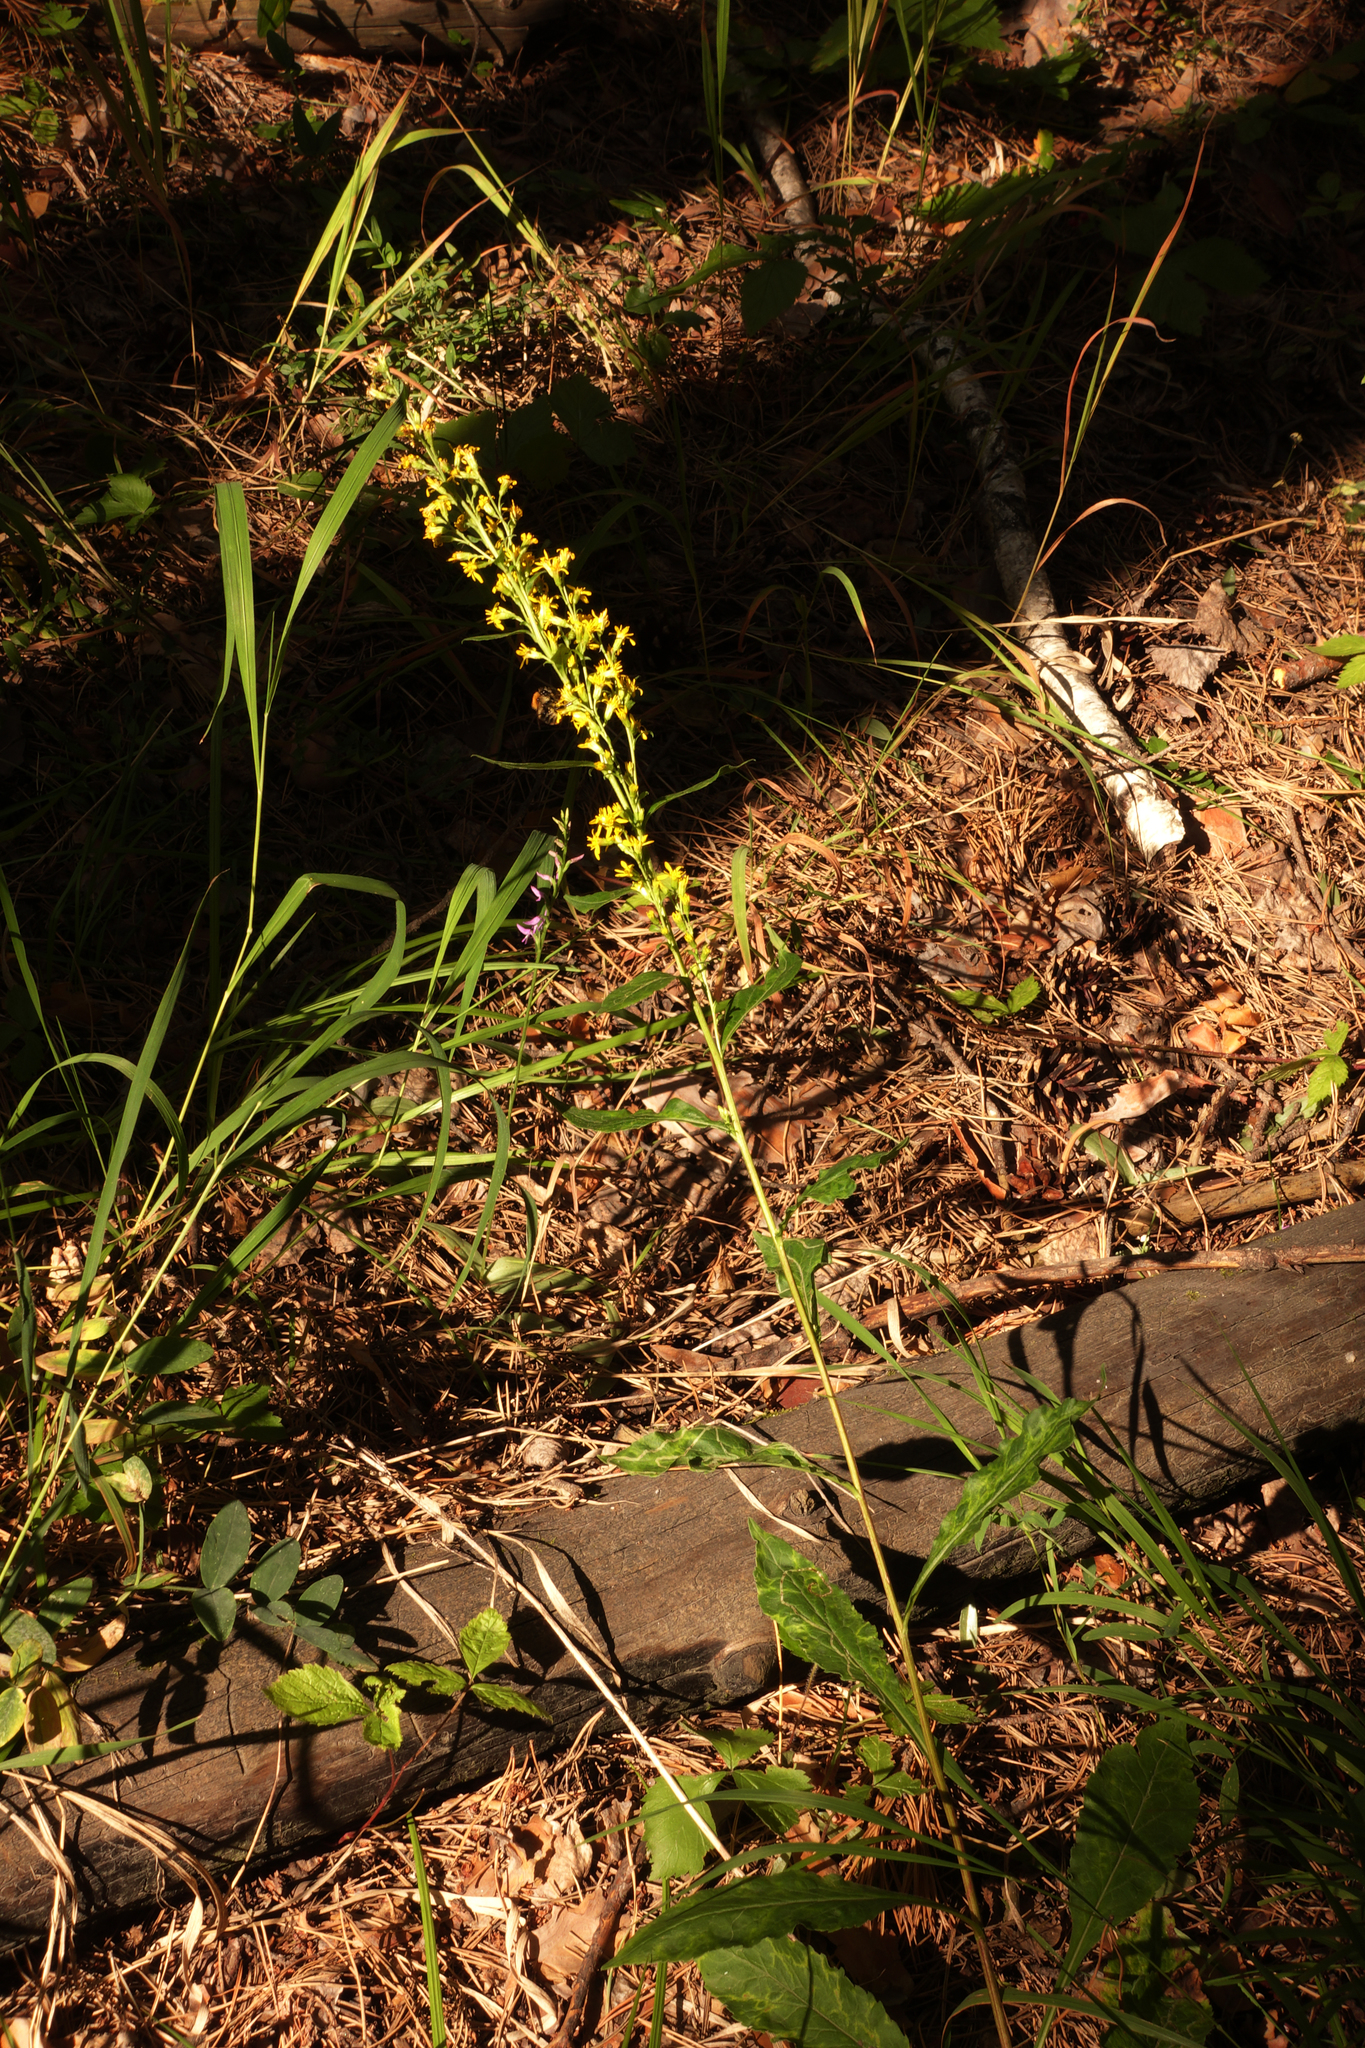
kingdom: Plantae
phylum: Tracheophyta
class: Magnoliopsida
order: Asterales
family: Asteraceae
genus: Solidago
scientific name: Solidago virgaurea
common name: Goldenrod
